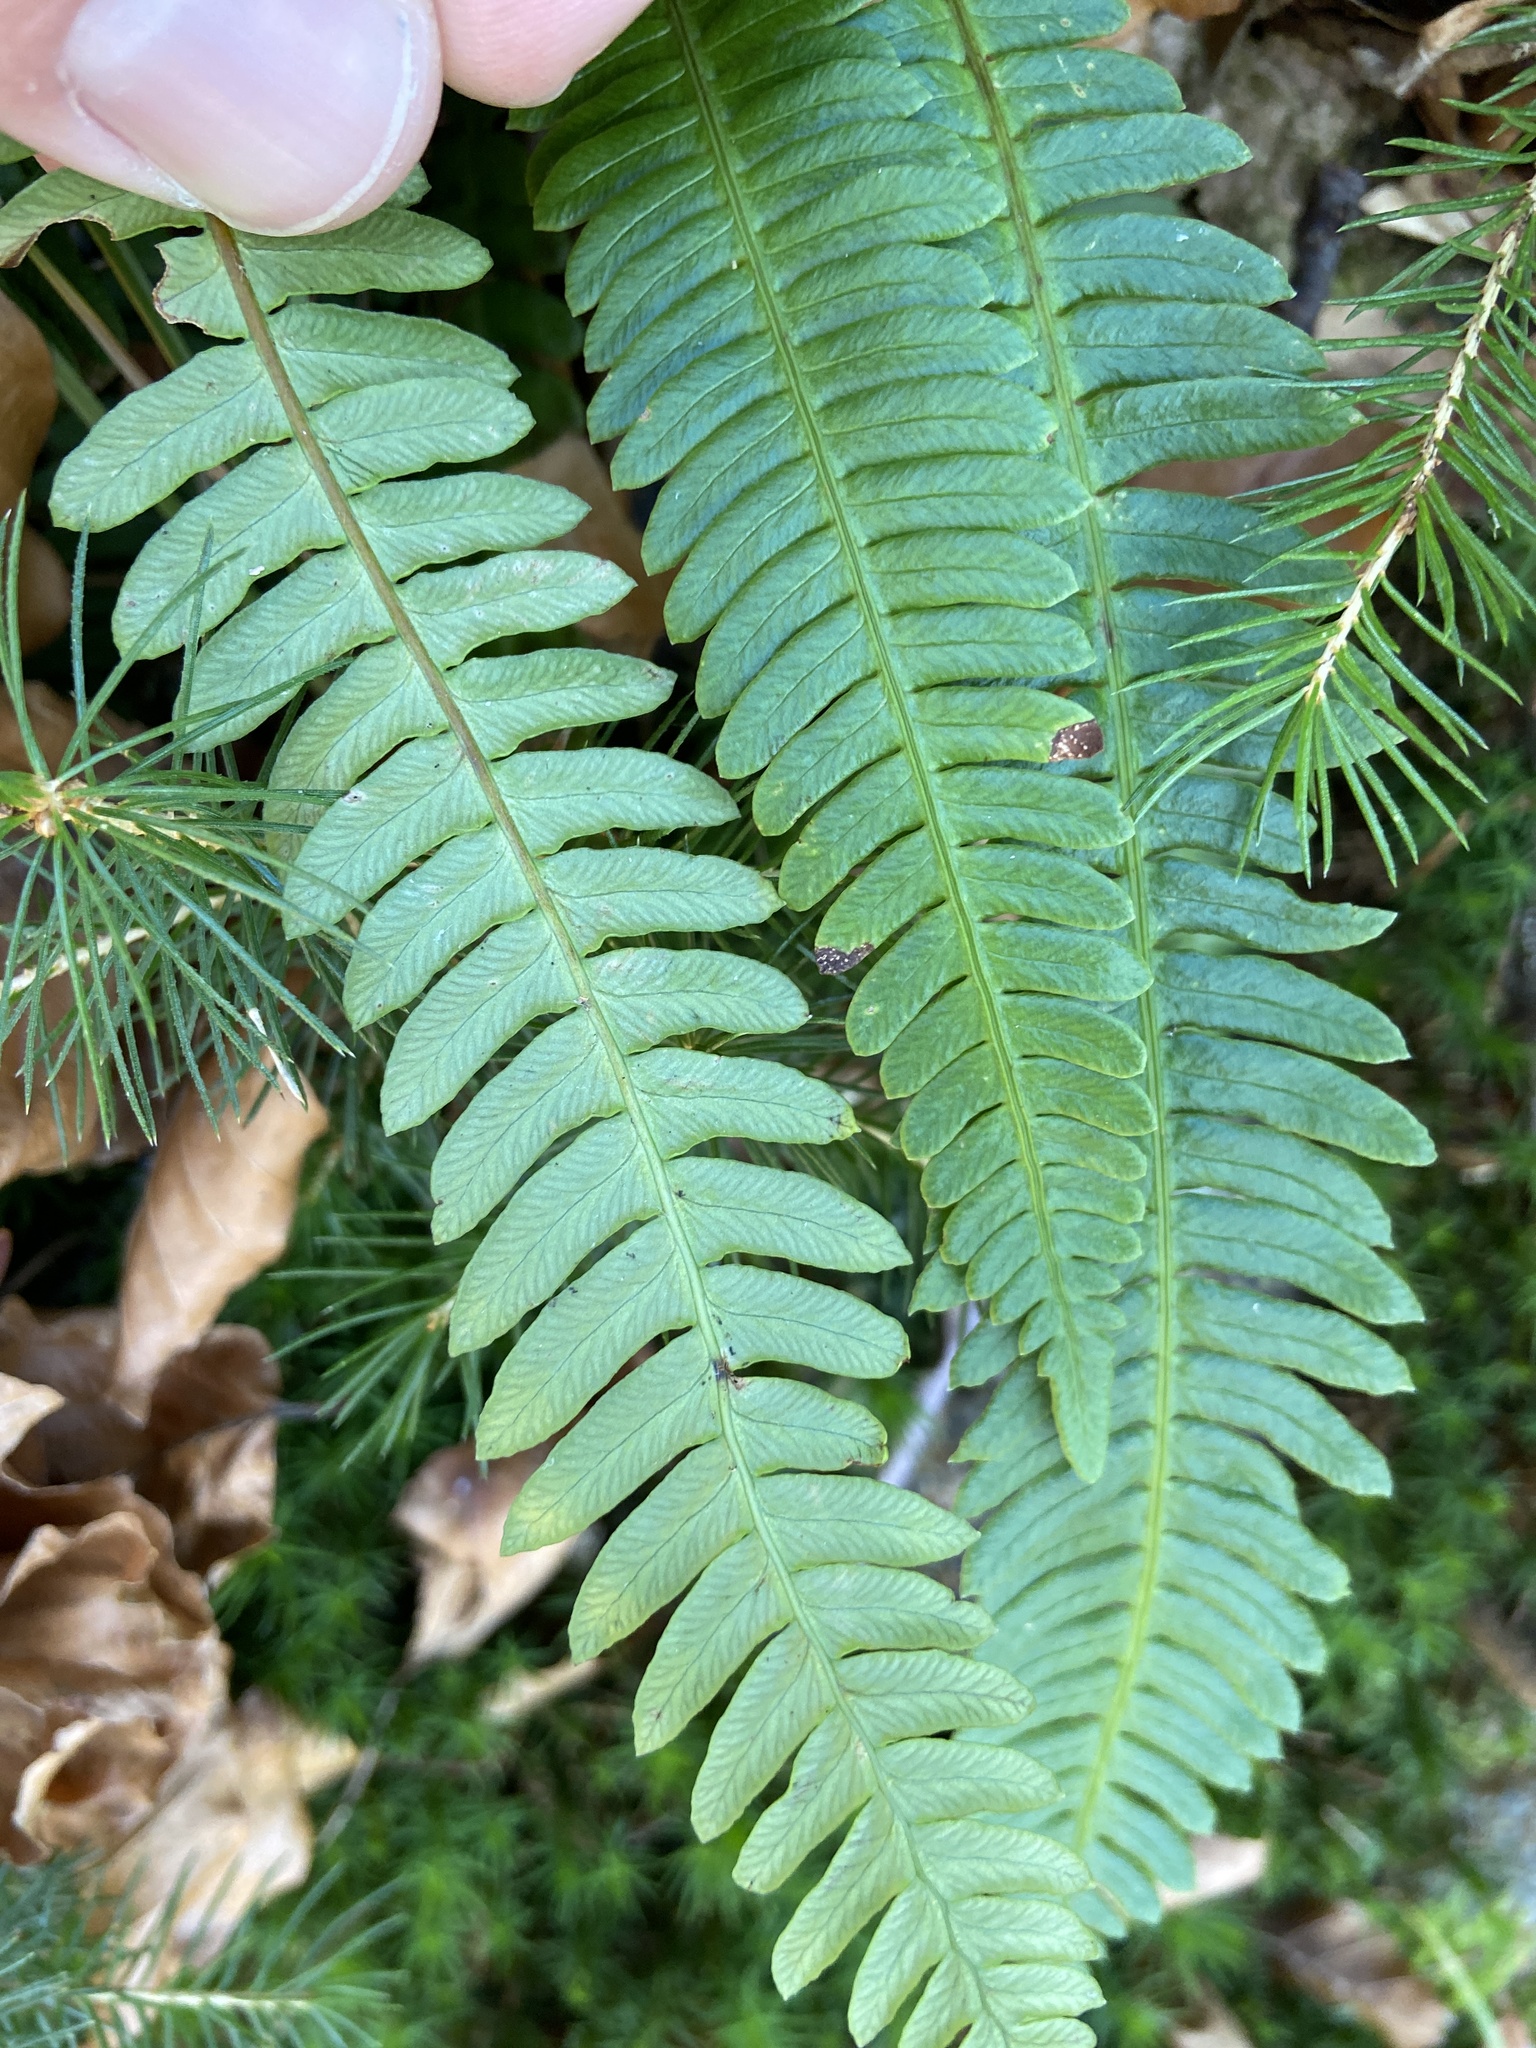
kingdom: Plantae
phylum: Tracheophyta
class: Polypodiopsida
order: Polypodiales
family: Blechnaceae
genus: Struthiopteris
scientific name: Struthiopteris spicant
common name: Deer fern
